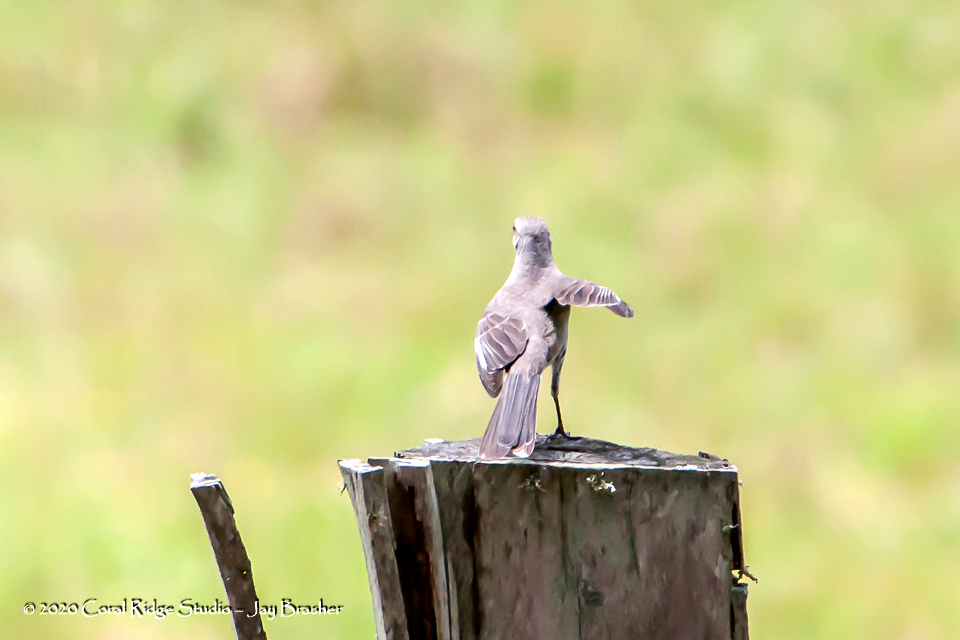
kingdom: Animalia
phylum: Chordata
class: Aves
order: Passeriformes
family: Mimidae
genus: Mimus
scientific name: Mimus polyglottos
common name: Northern mockingbird
